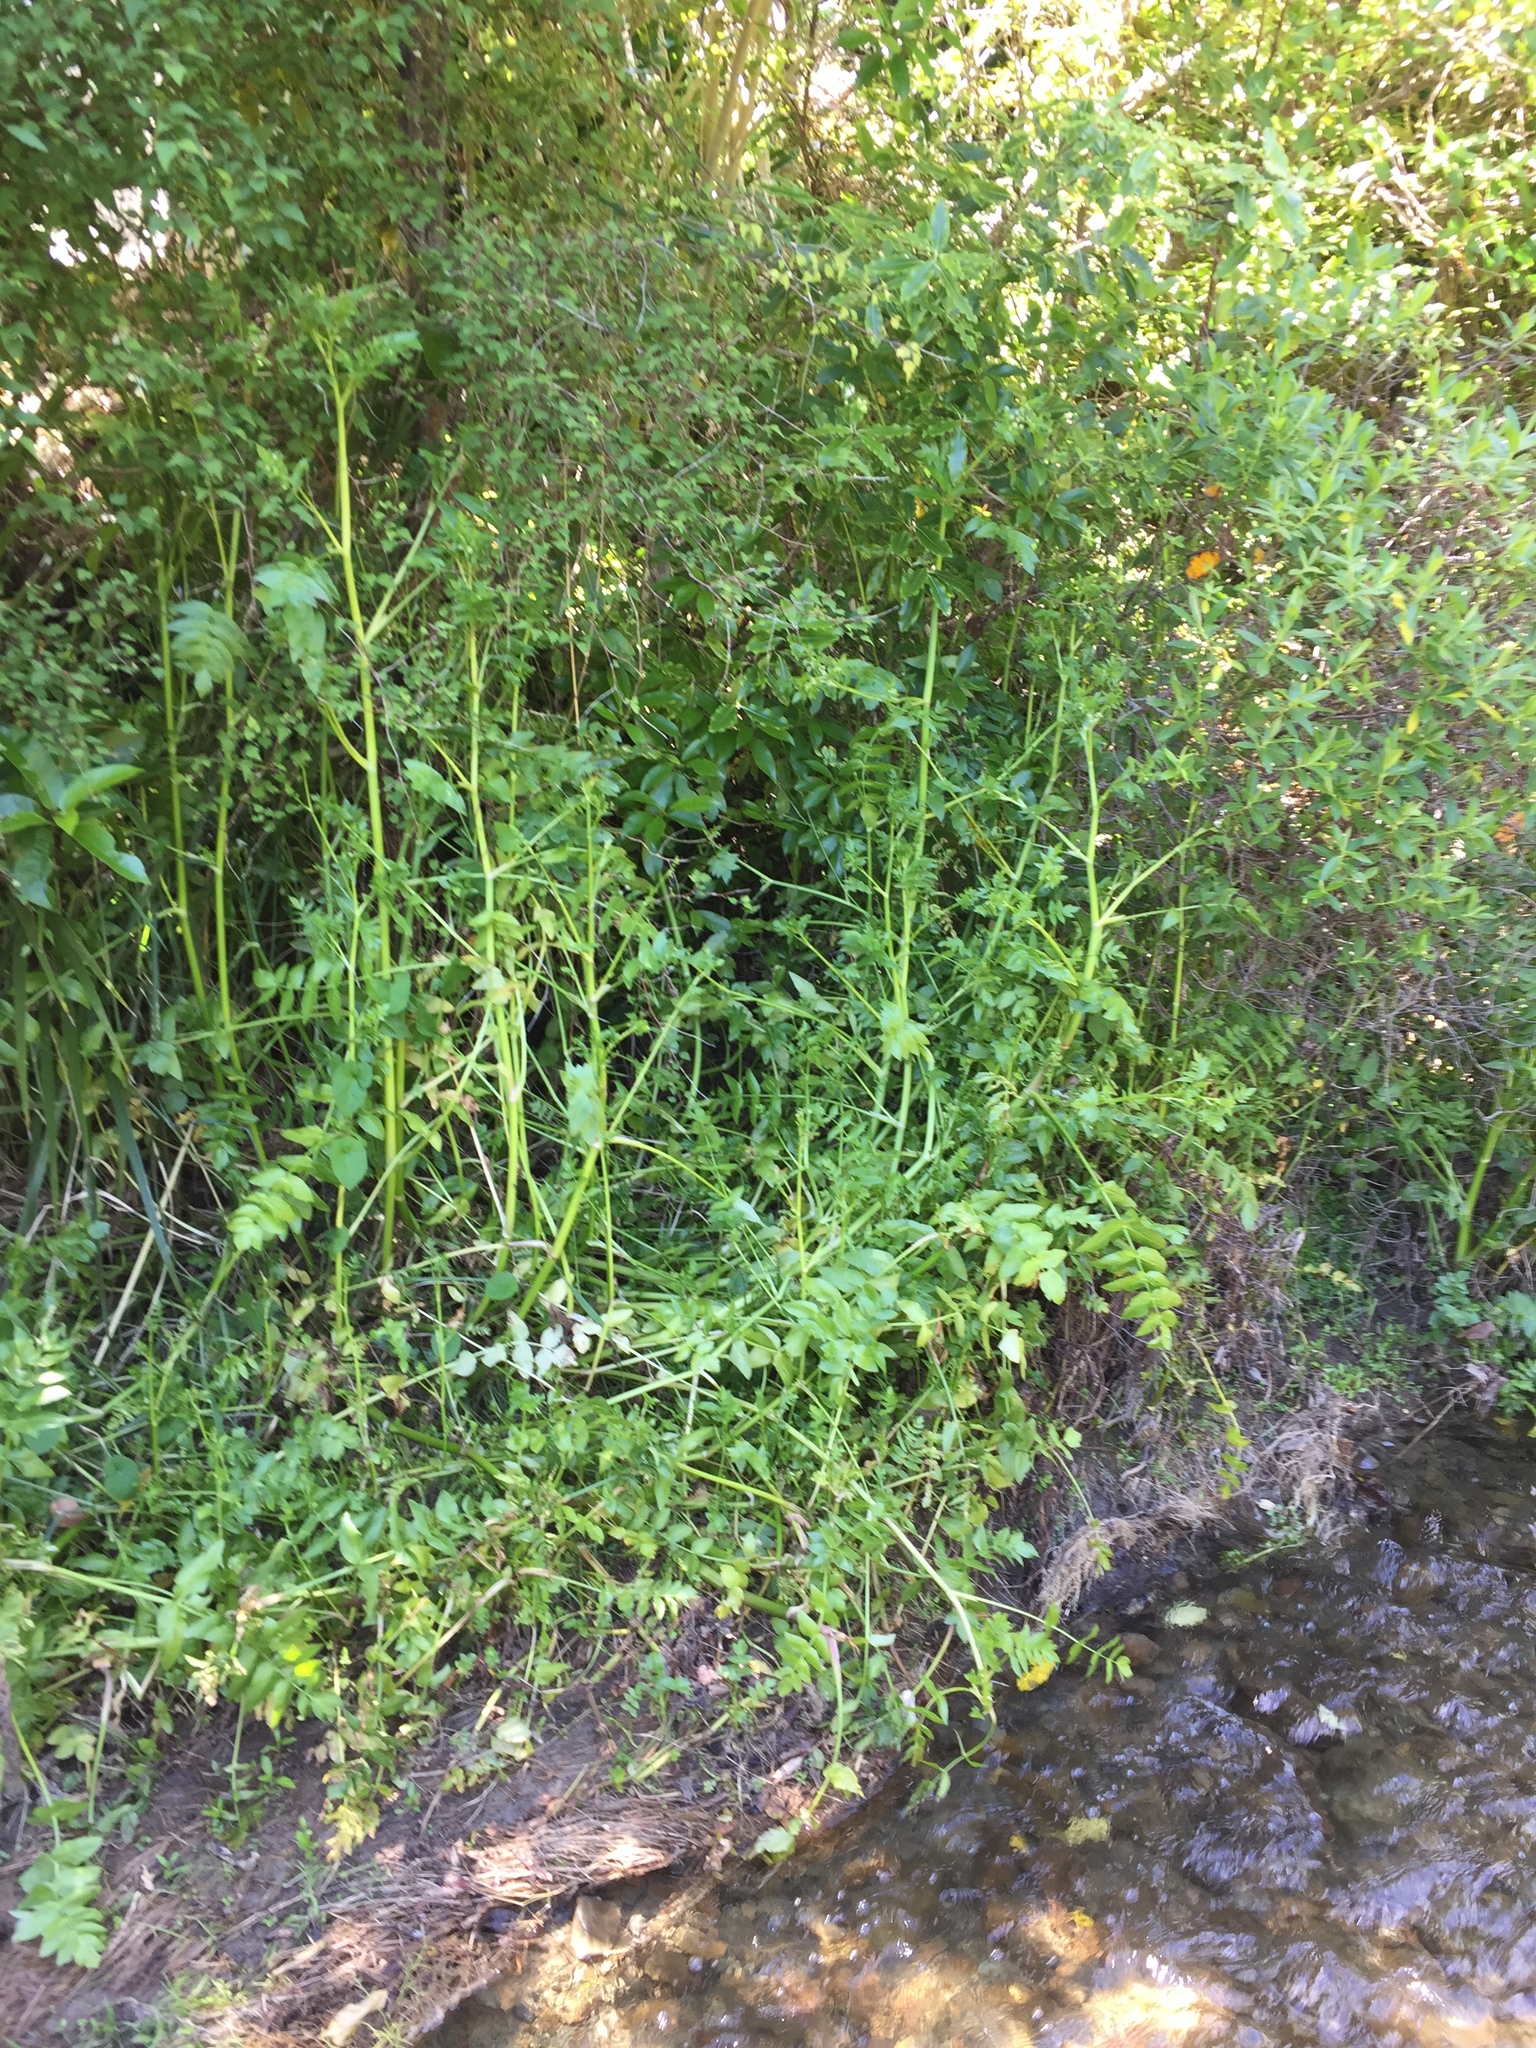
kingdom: Plantae
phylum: Tracheophyta
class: Magnoliopsida
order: Apiales
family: Apiaceae
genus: Helosciadium
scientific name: Helosciadium nodiflorum
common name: Fool's-watercress
